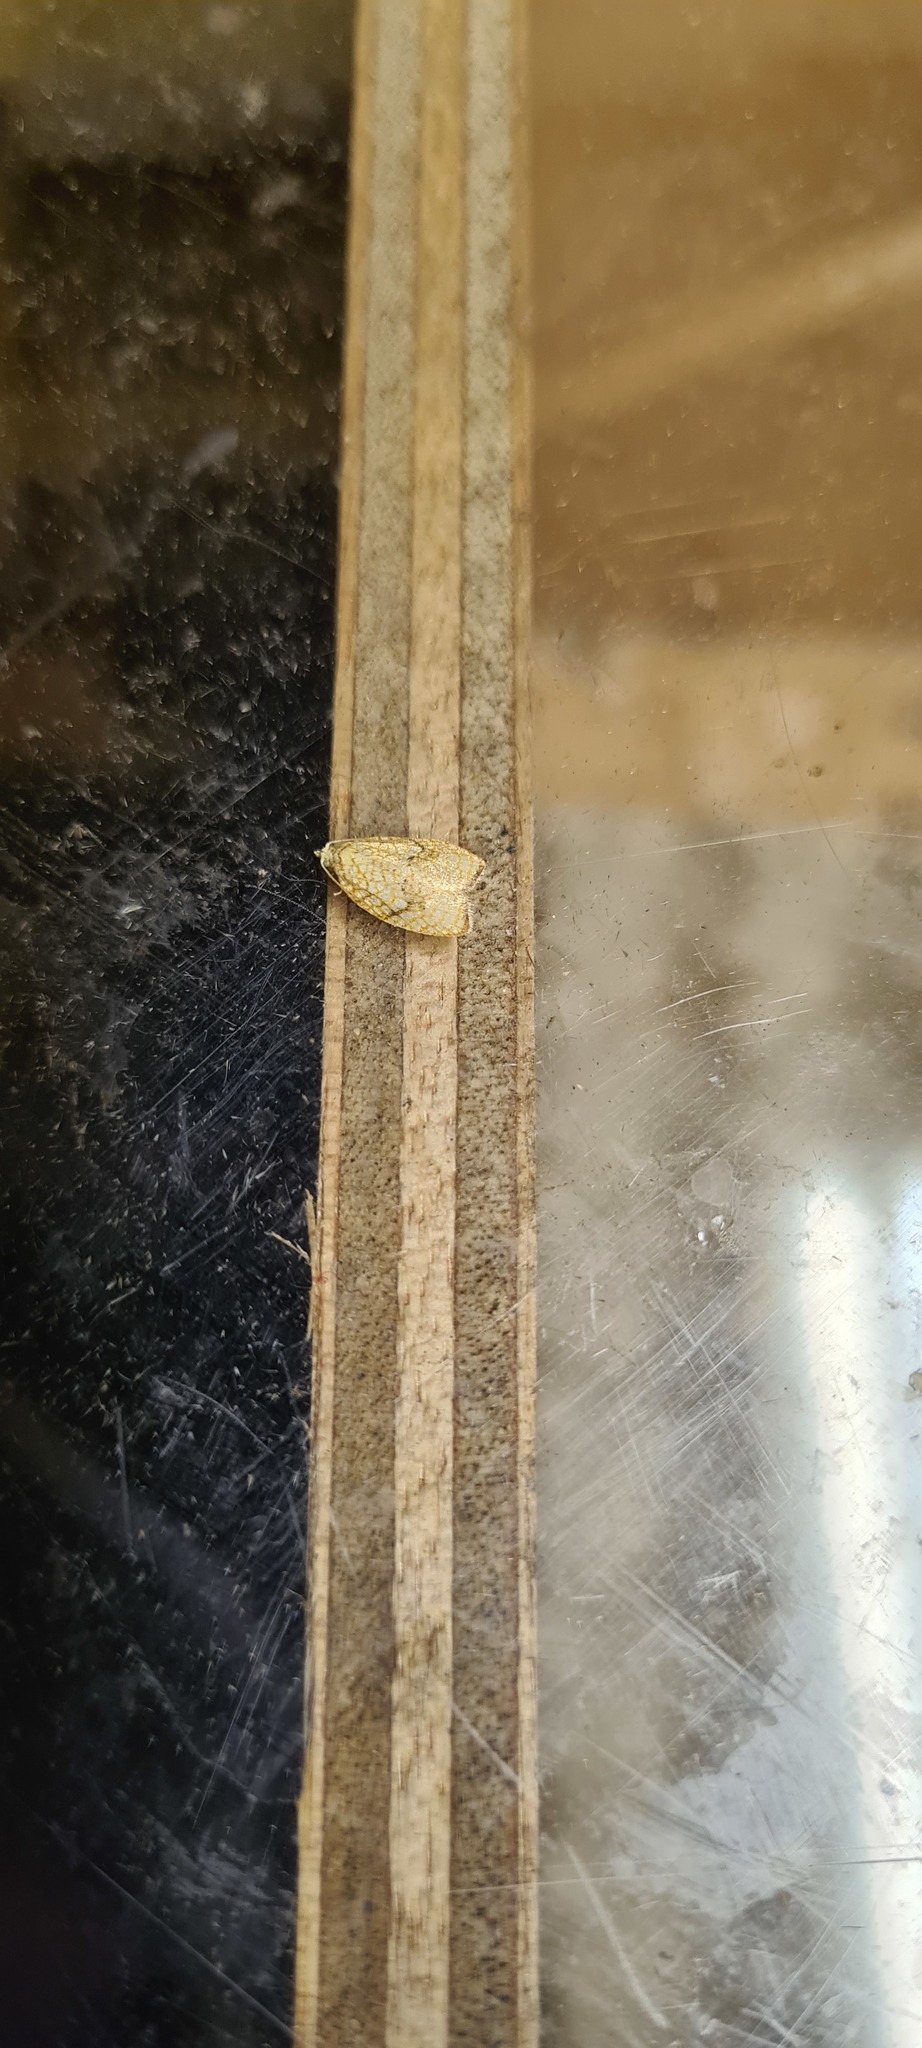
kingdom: Animalia
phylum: Arthropoda
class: Insecta
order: Lepidoptera
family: Tortricidae
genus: Acleris
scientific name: Acleris forsskaleana
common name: Maple button
